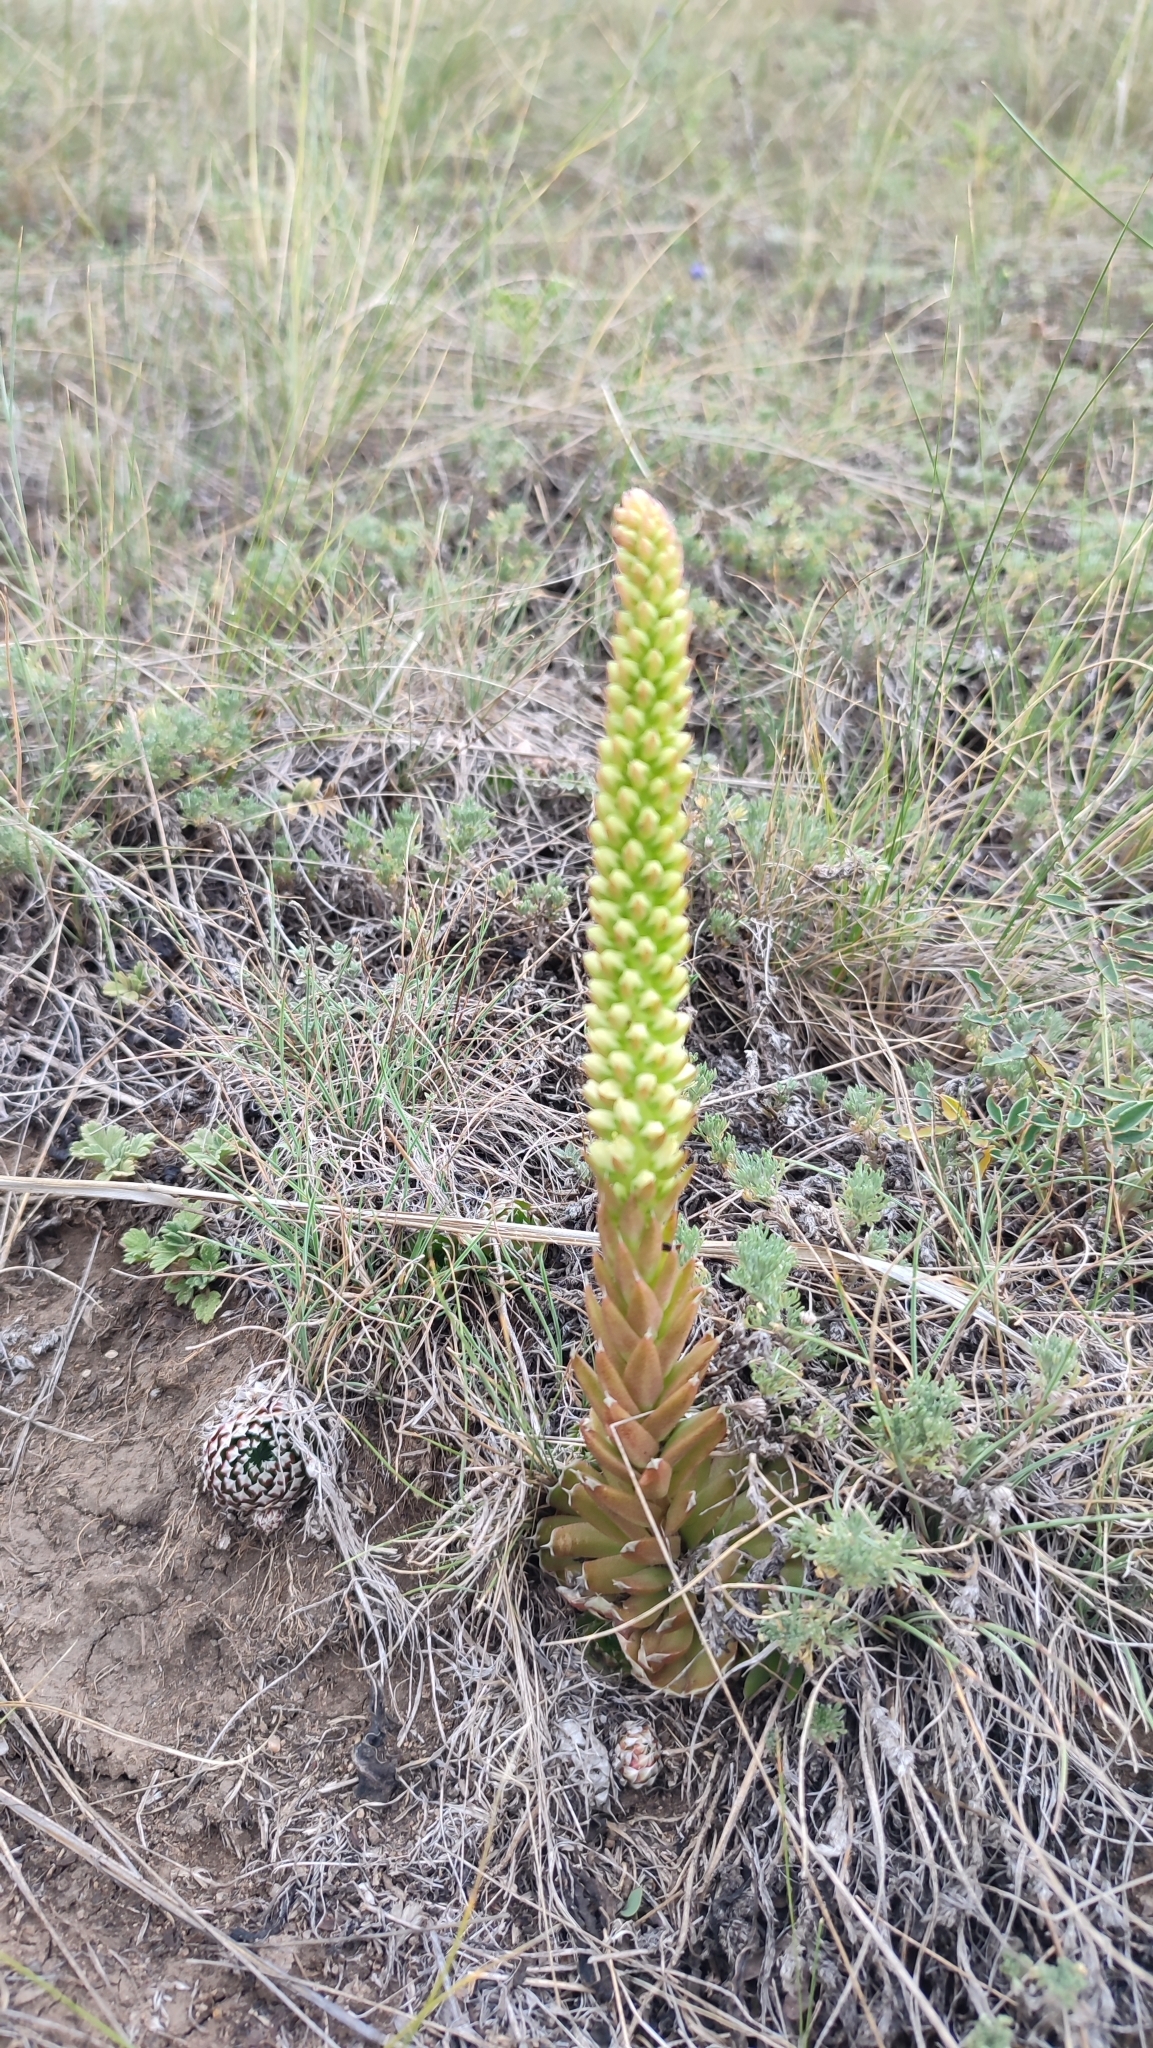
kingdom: Plantae
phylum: Tracheophyta
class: Magnoliopsida
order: Saxifragales
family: Crassulaceae
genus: Orostachys
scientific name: Orostachys spinosa
